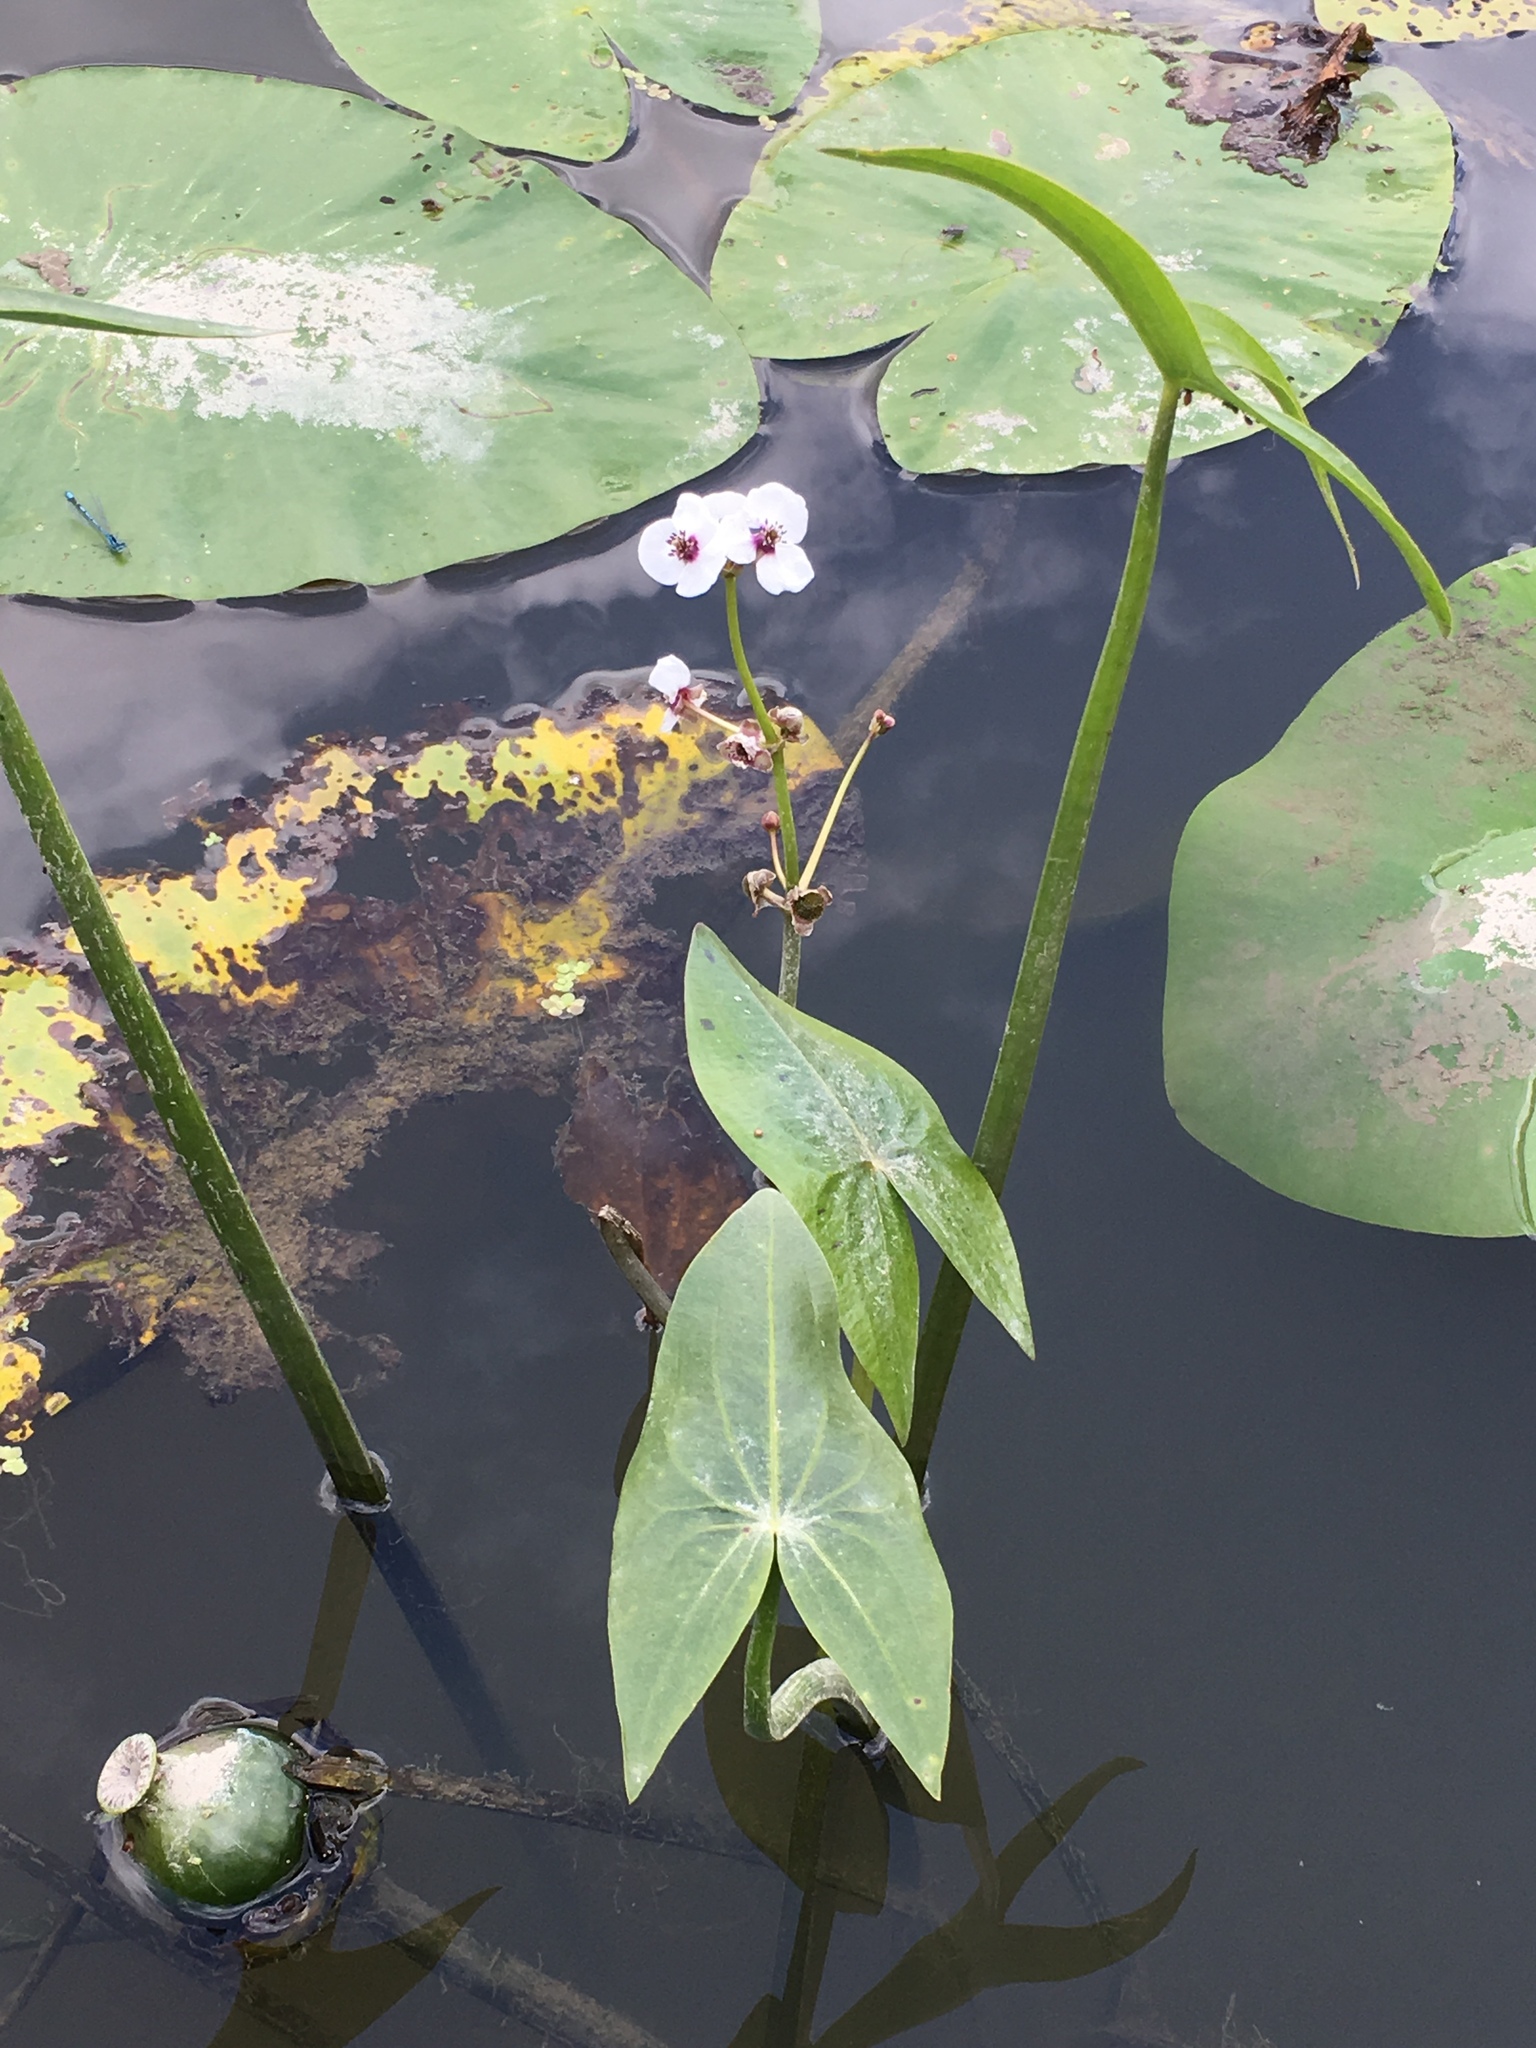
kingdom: Plantae
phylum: Tracheophyta
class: Liliopsida
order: Alismatales
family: Alismataceae
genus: Sagittaria
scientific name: Sagittaria sagittifolia
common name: Arrowhead
